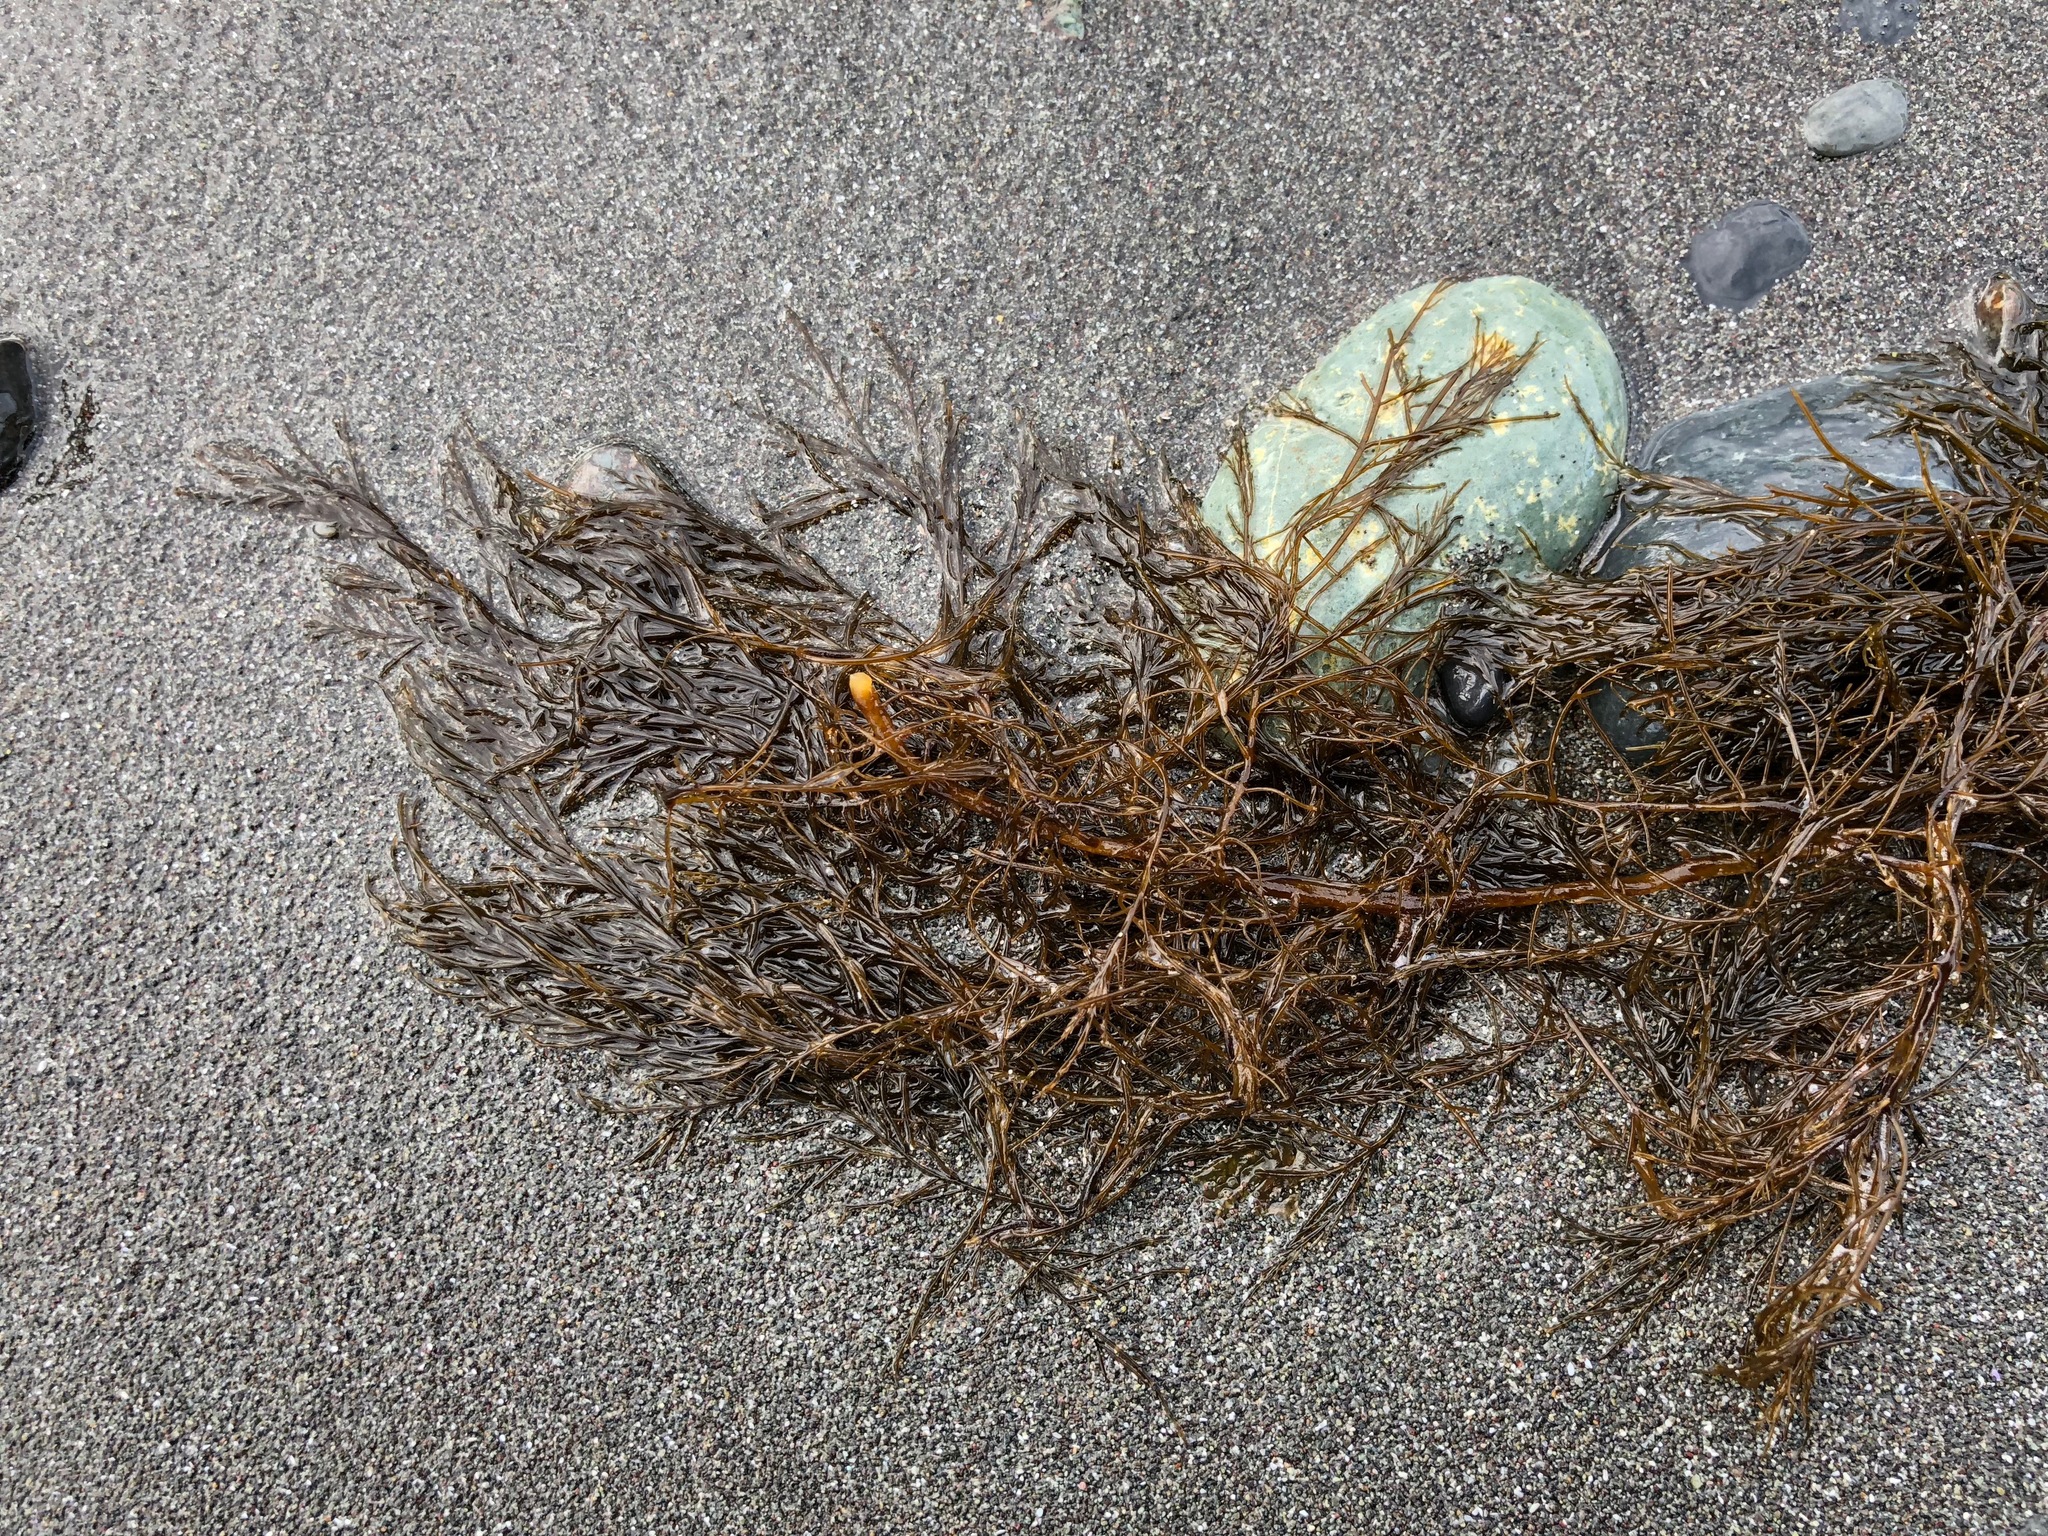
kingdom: Chromista
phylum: Ochrophyta
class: Phaeophyceae
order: Desmarestiales
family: Desmarestiaceae
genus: Desmarestia
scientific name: Desmarestia viridis
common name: Stringy acid kelp
